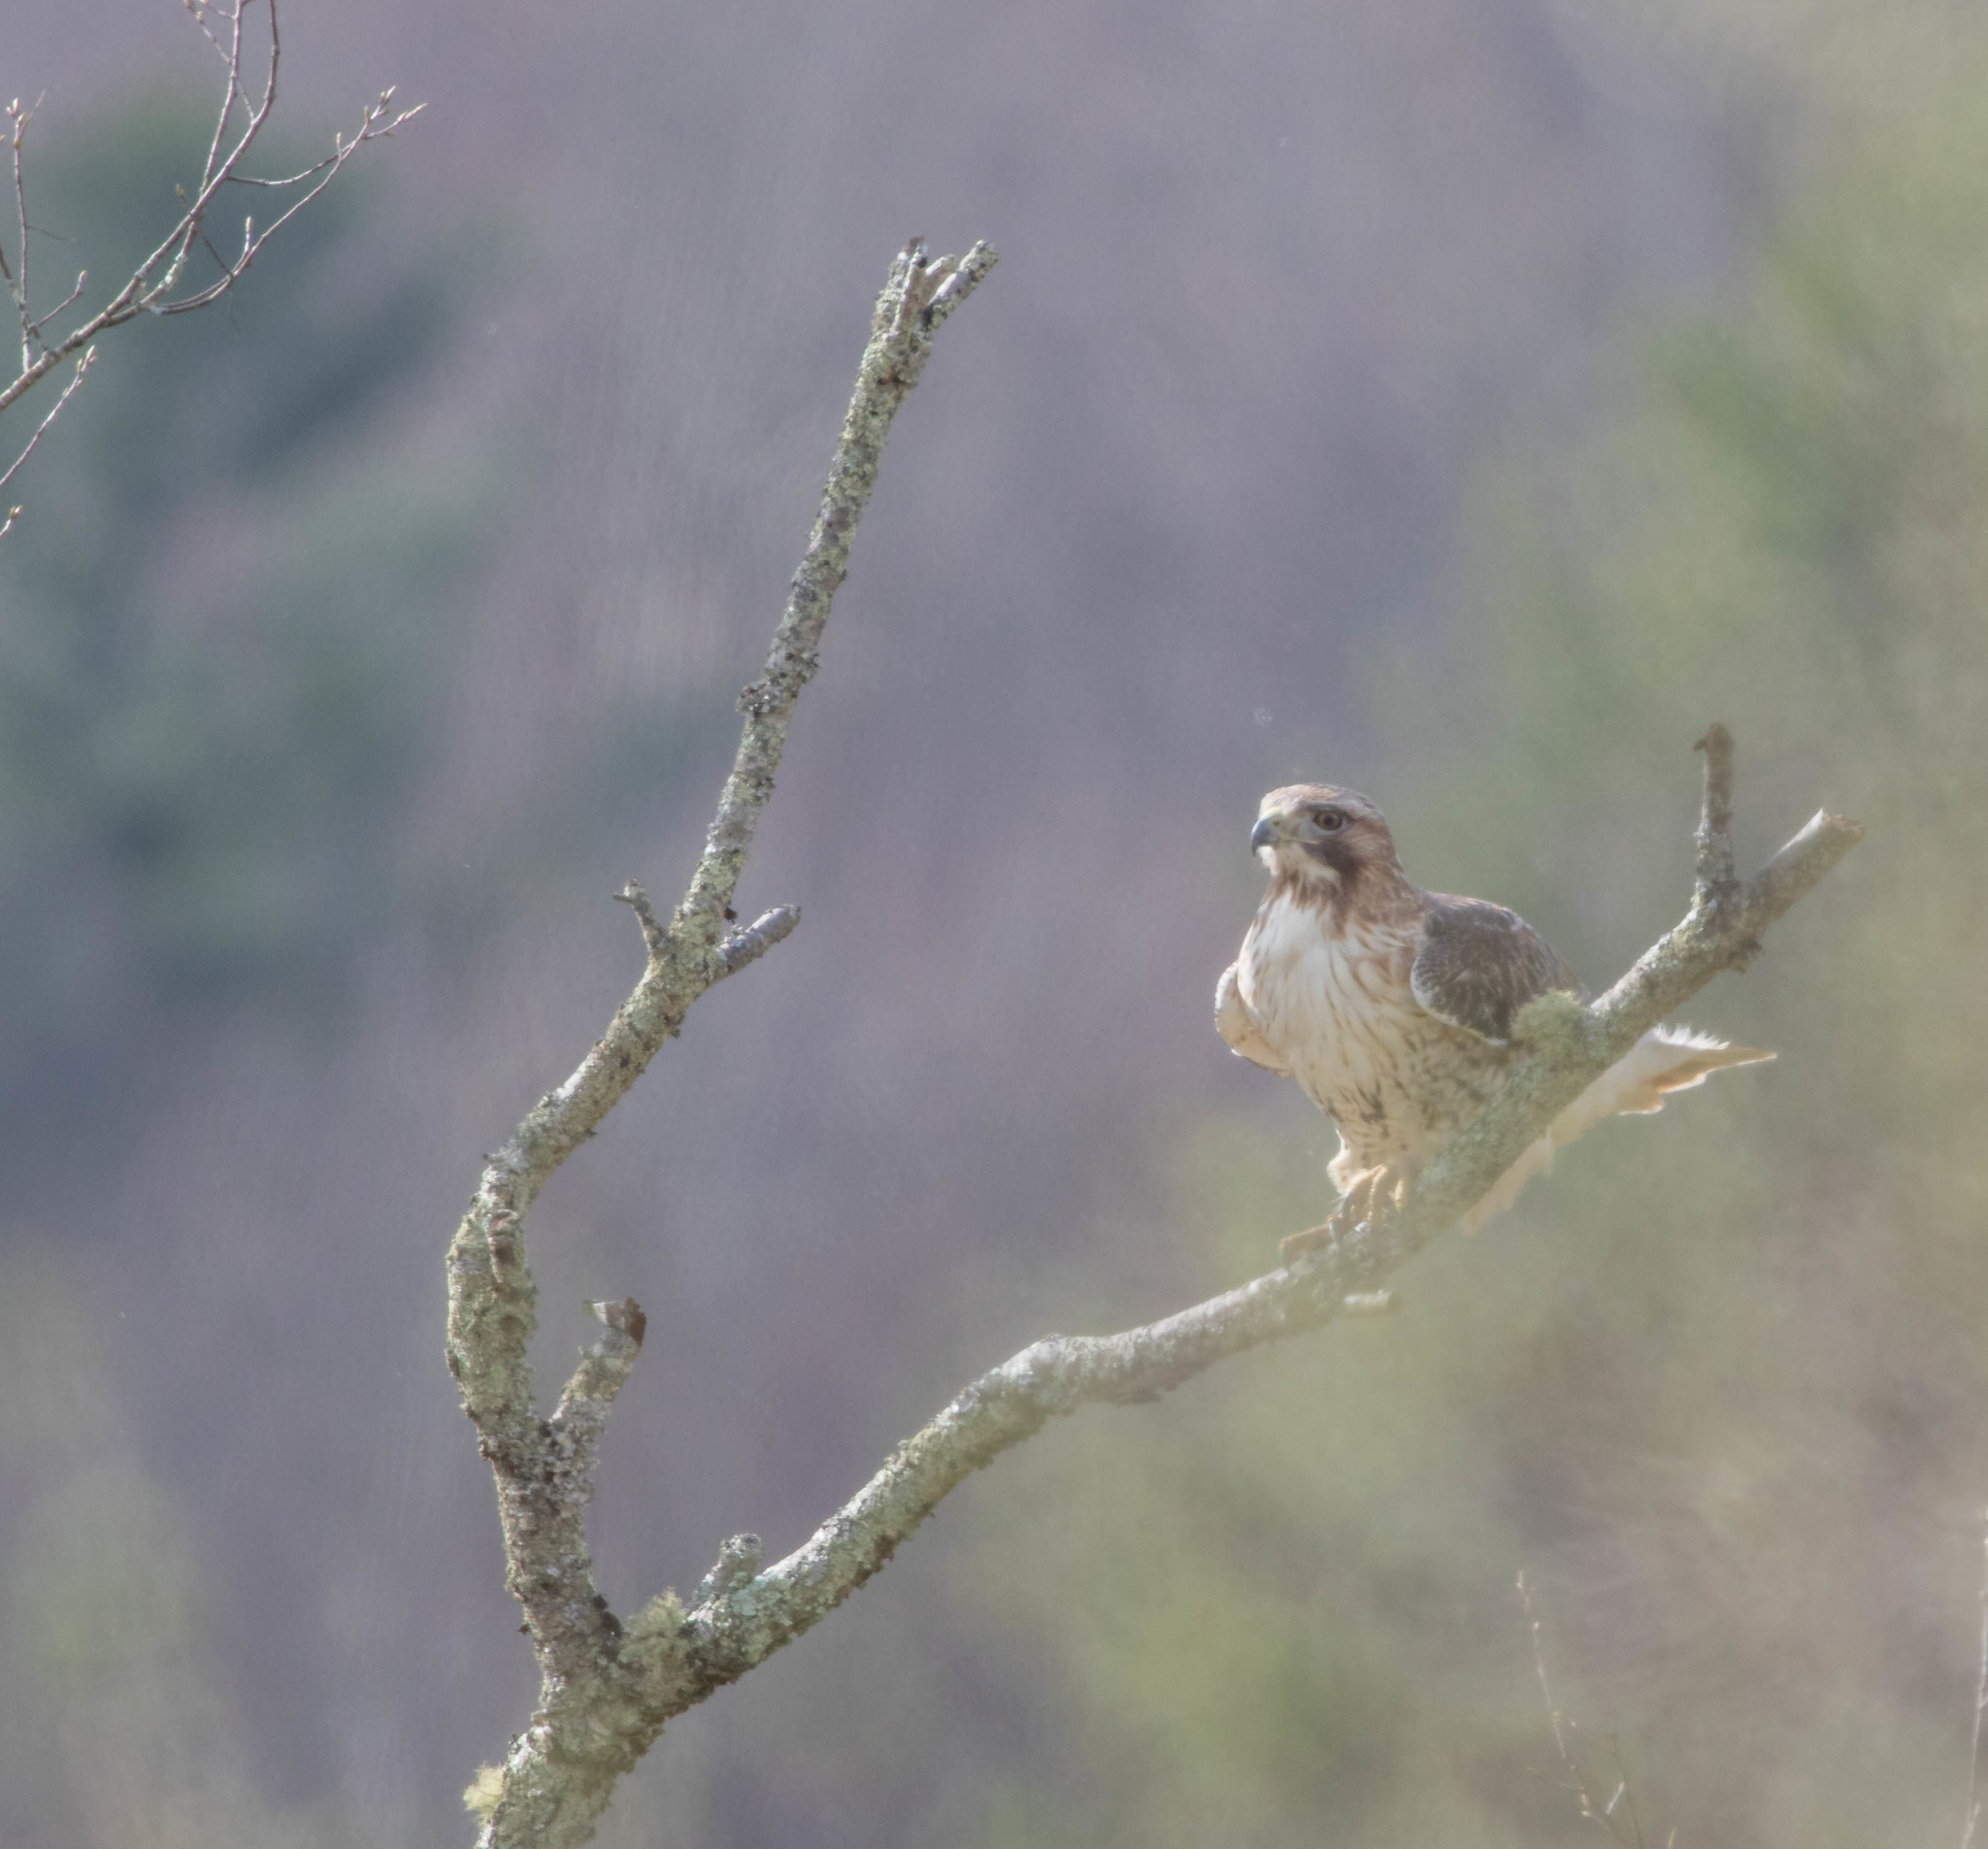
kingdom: Animalia
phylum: Chordata
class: Aves
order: Accipitriformes
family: Accipitridae
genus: Buteo
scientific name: Buteo jamaicensis
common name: Red-tailed hawk
